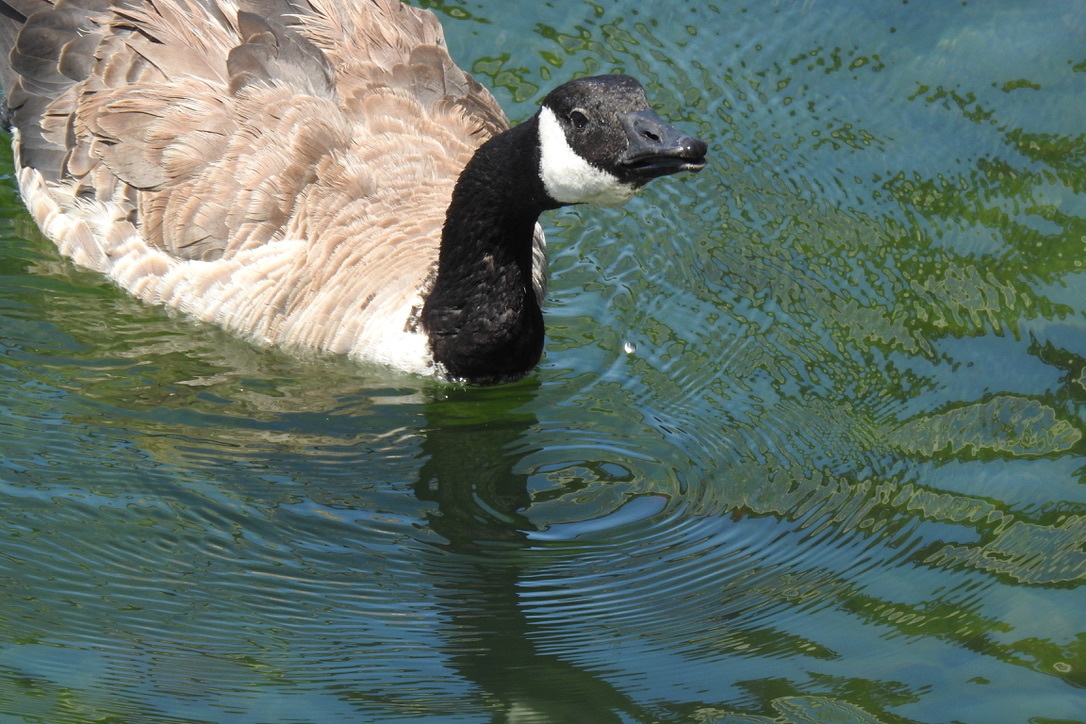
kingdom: Animalia
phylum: Chordata
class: Aves
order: Anseriformes
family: Anatidae
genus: Branta
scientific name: Branta canadensis
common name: Canada goose
